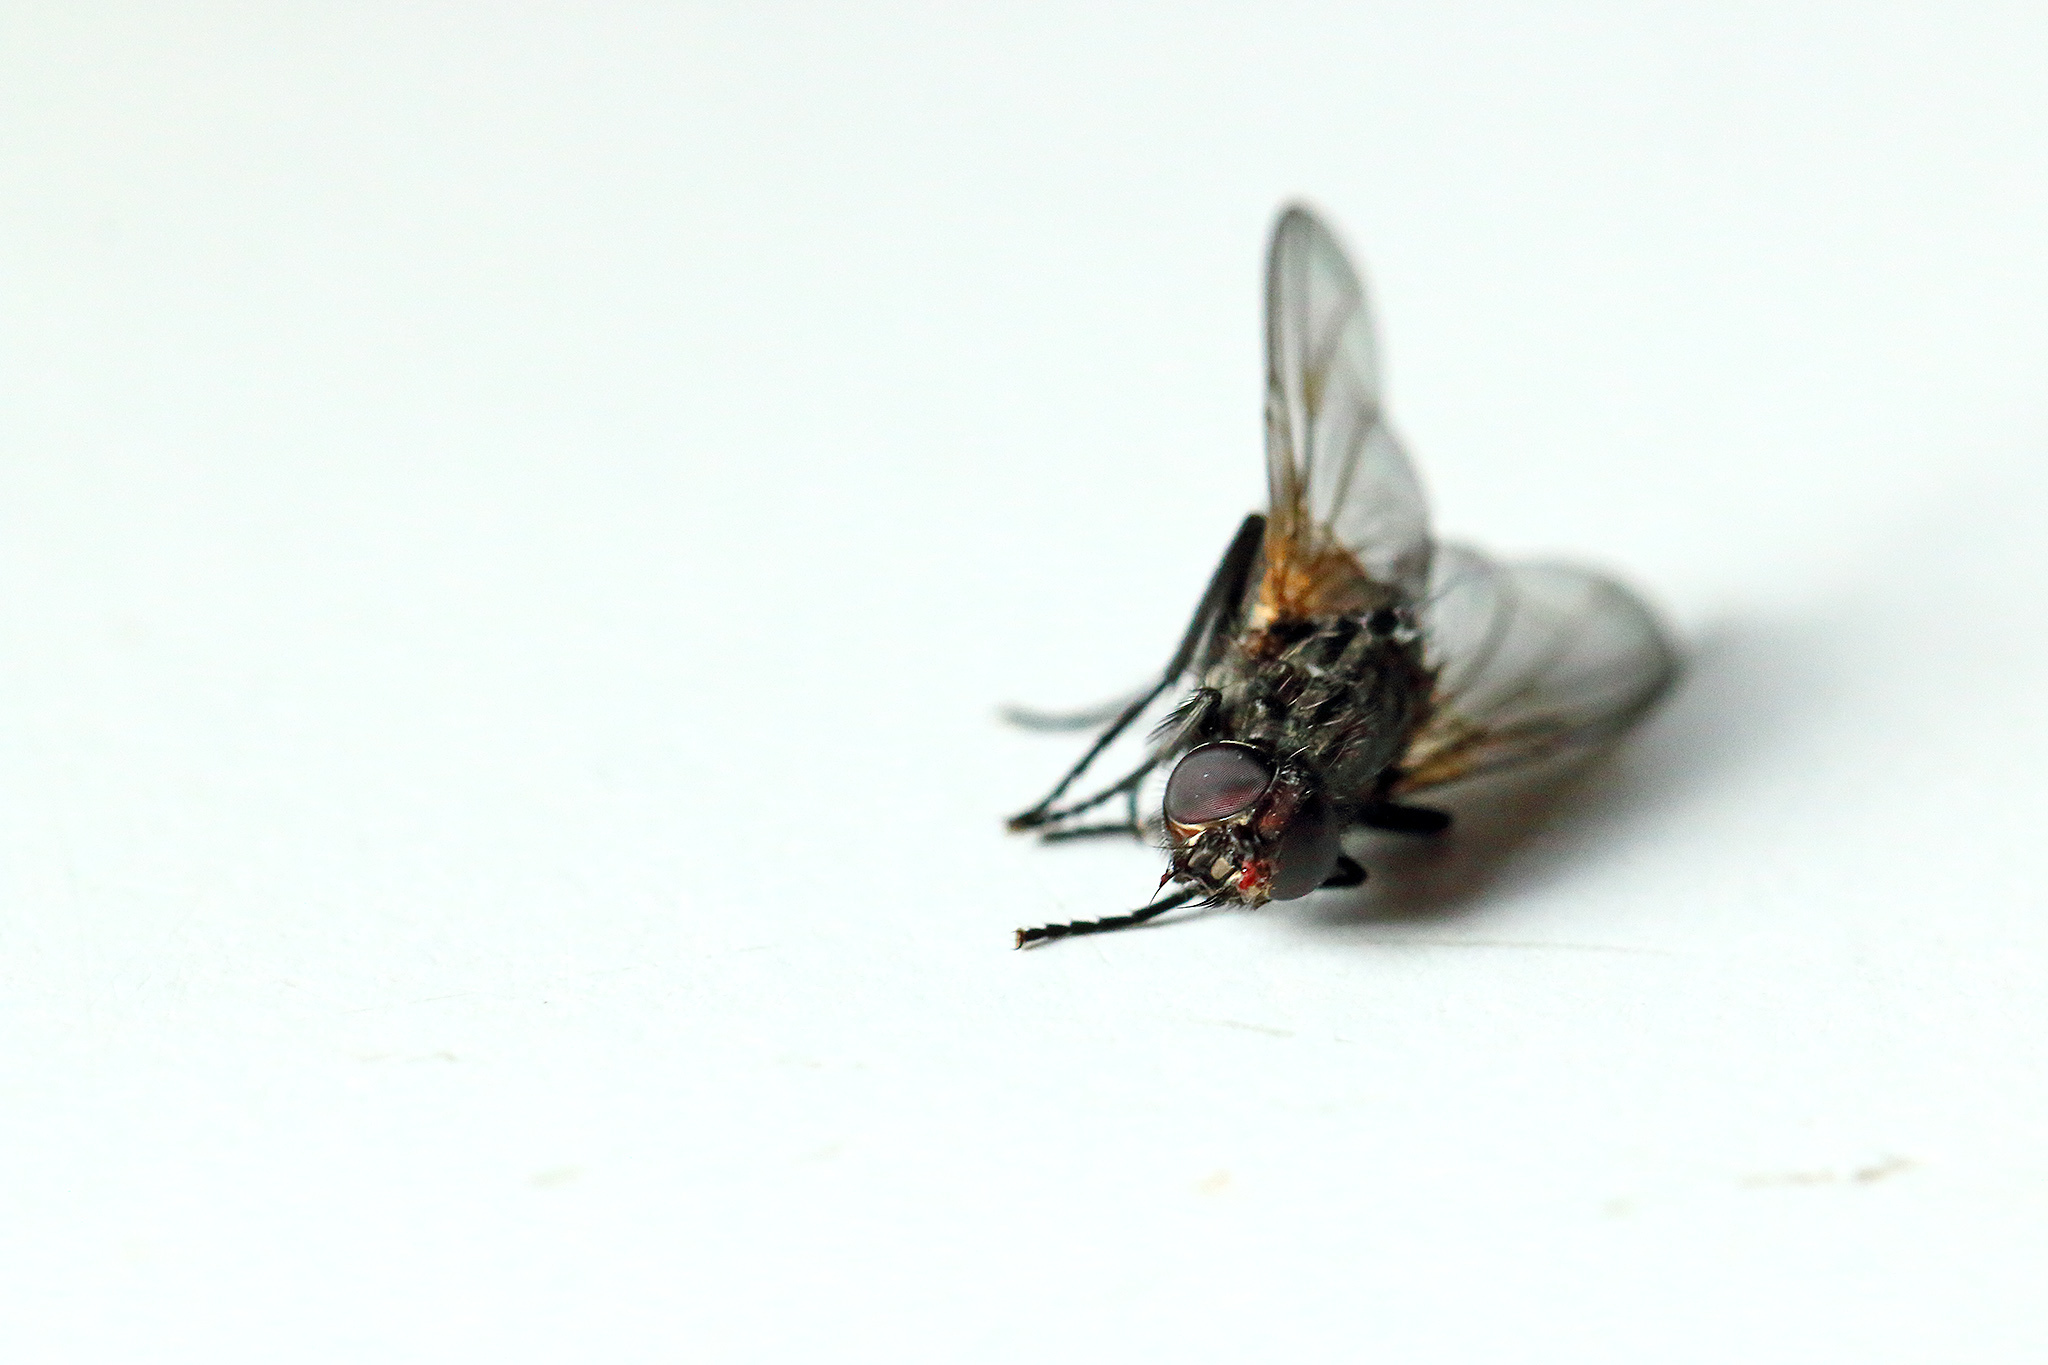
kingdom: Animalia
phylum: Arthropoda
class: Insecta
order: Diptera
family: Muscidae
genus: Musca
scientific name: Musca domestica
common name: House fly
